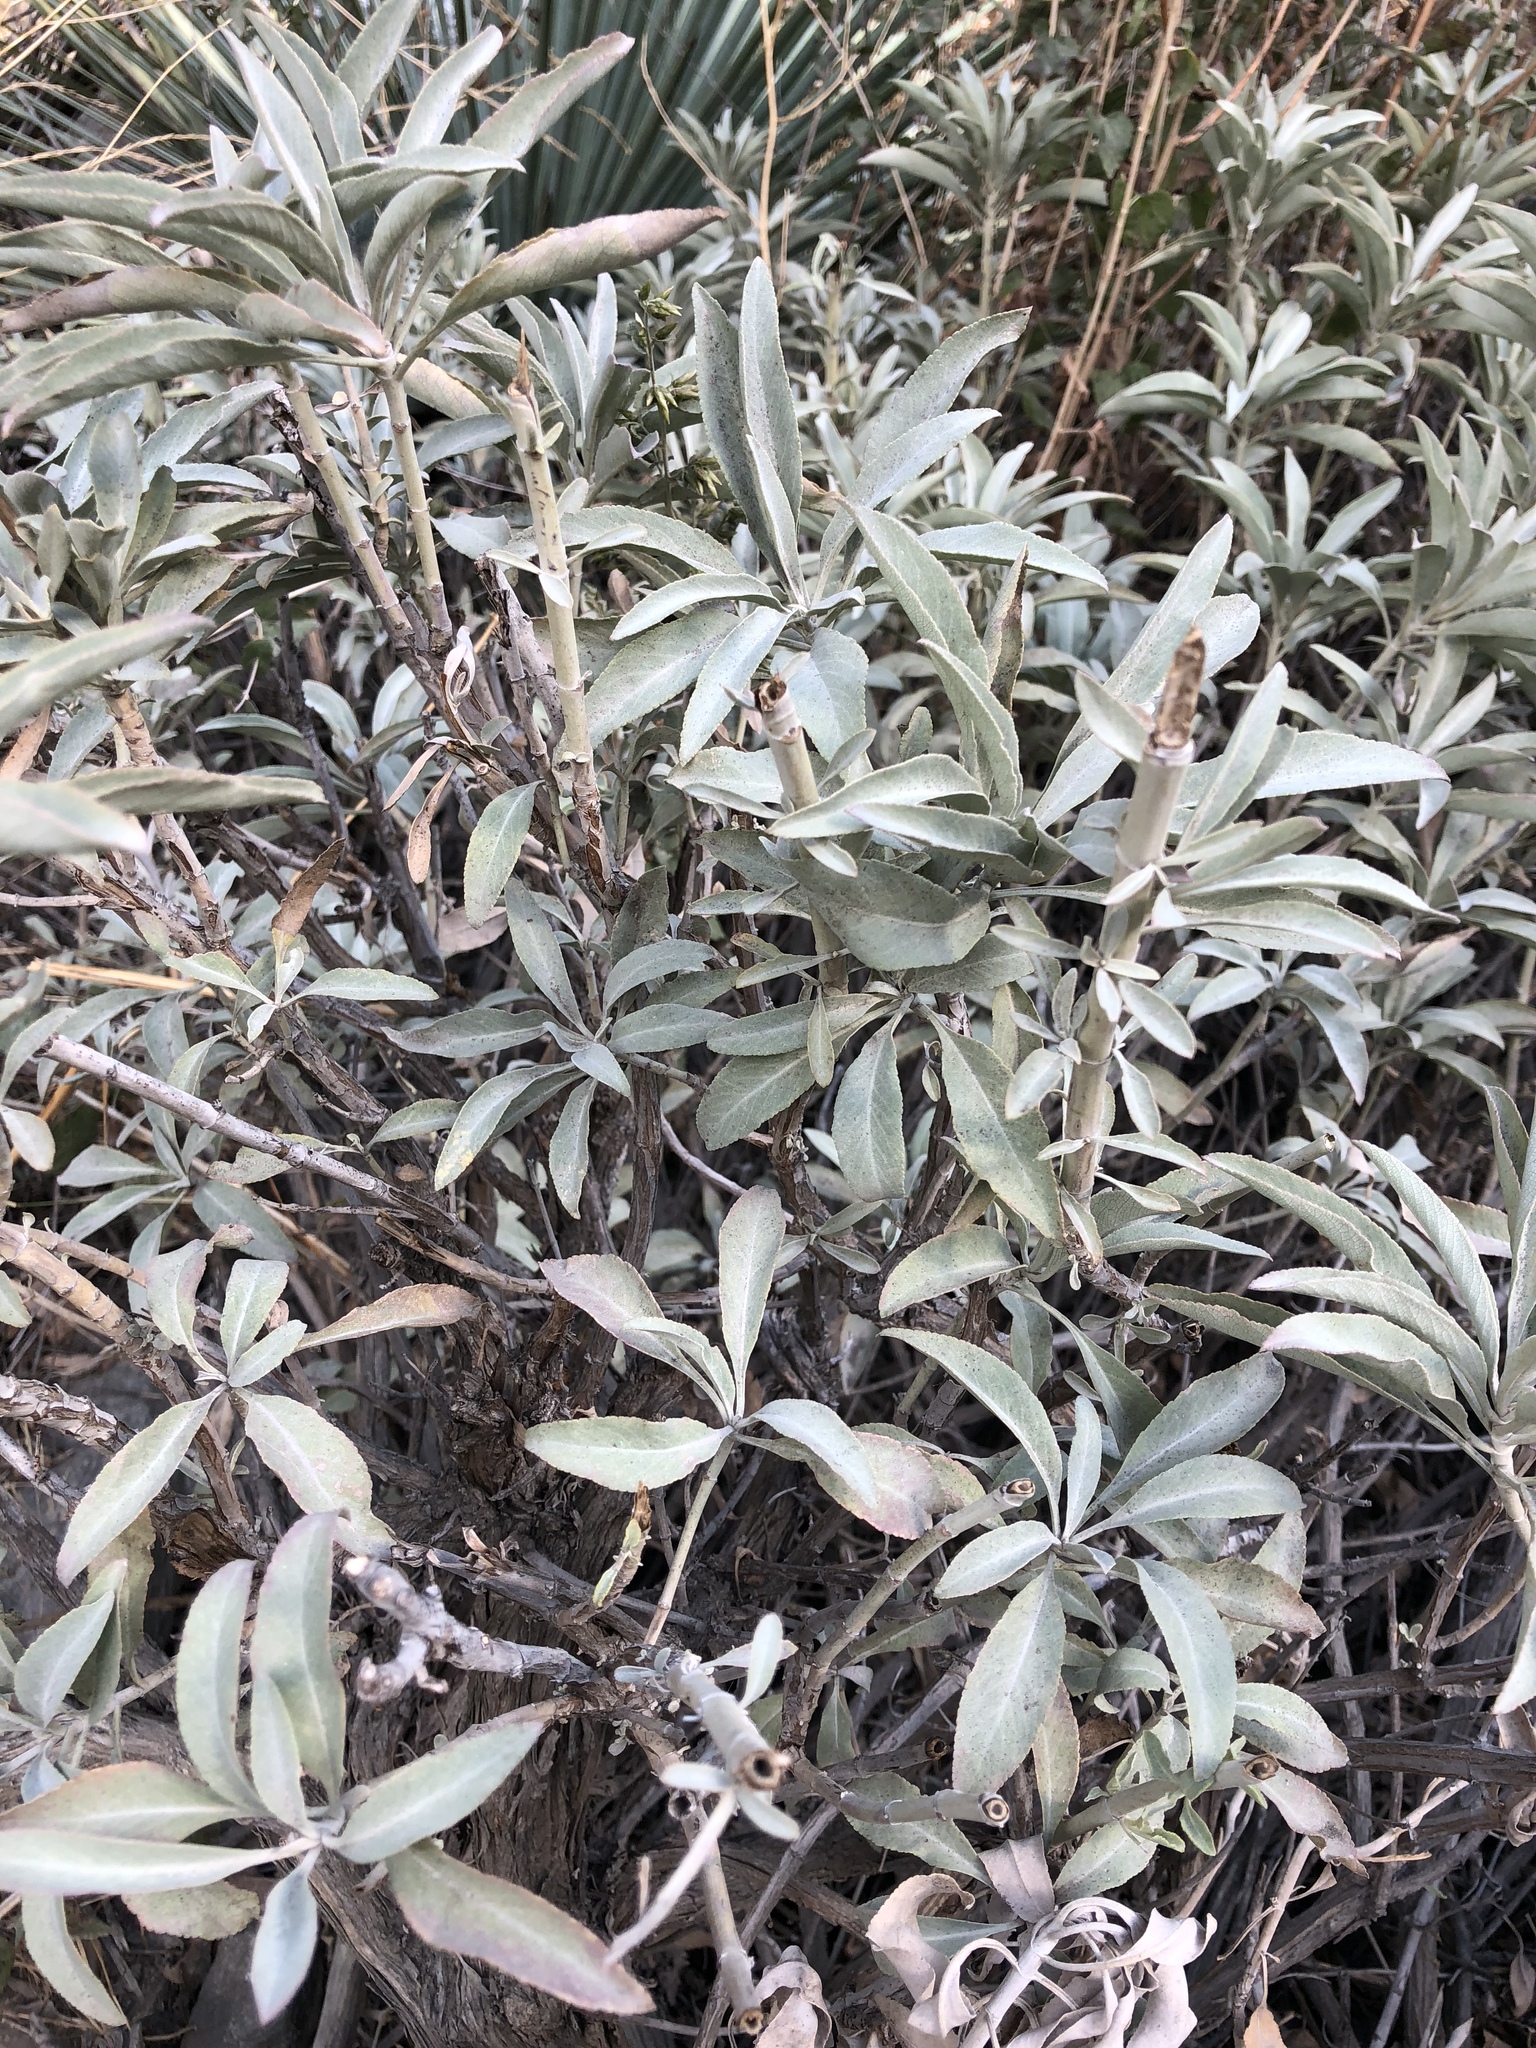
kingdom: Plantae
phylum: Tracheophyta
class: Magnoliopsida
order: Lamiales
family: Lamiaceae
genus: Salvia
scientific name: Salvia apiana
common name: White sage
